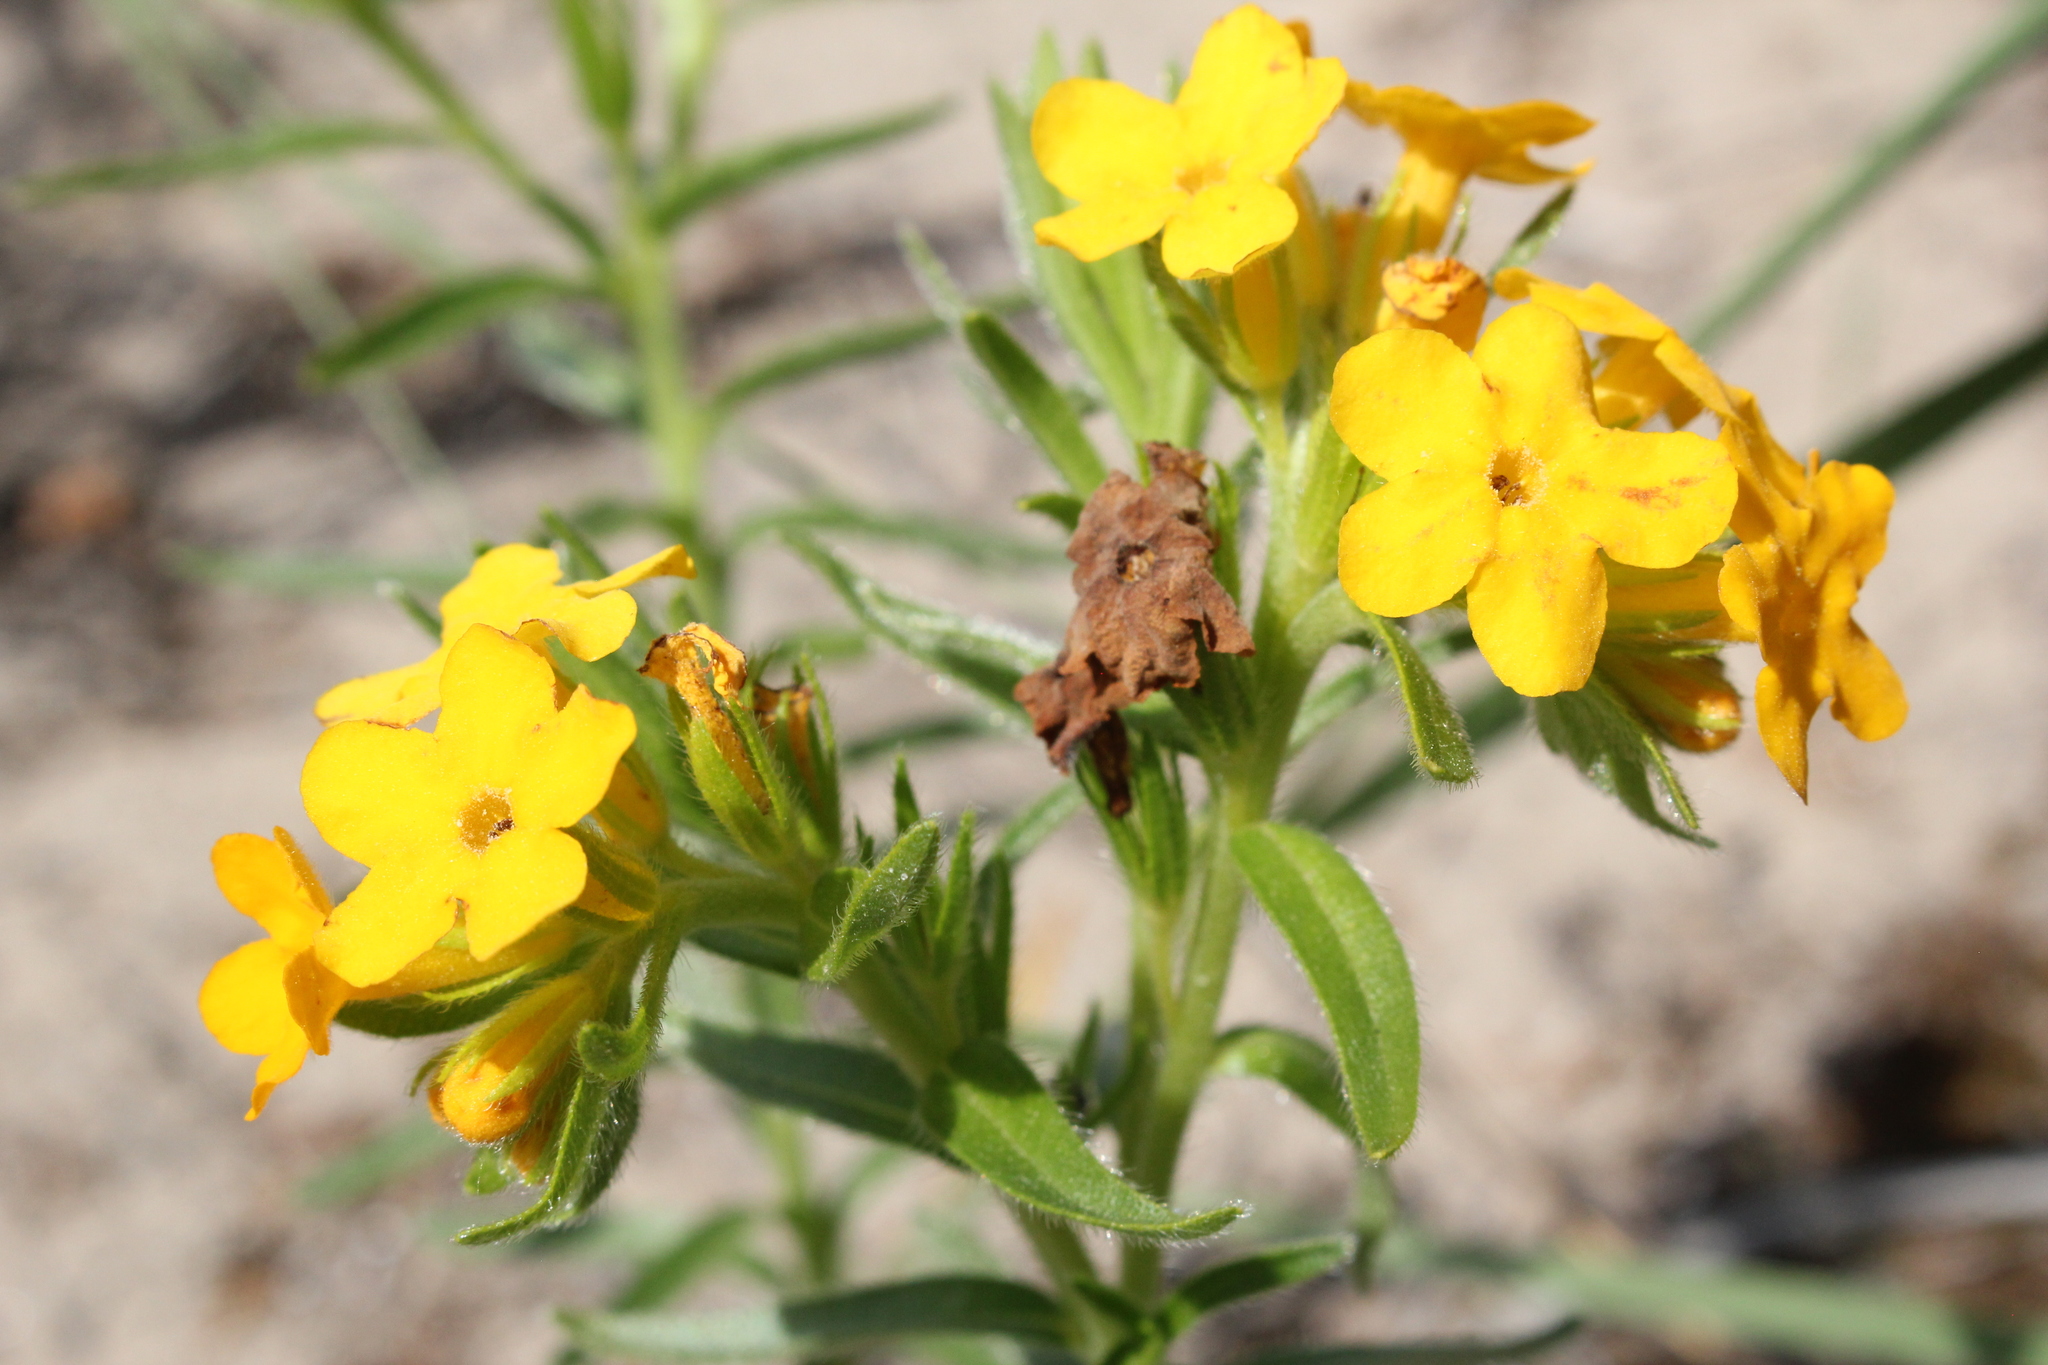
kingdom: Plantae
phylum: Tracheophyta
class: Magnoliopsida
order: Boraginales
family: Boraginaceae
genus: Lithospermum
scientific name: Lithospermum caroliniense
